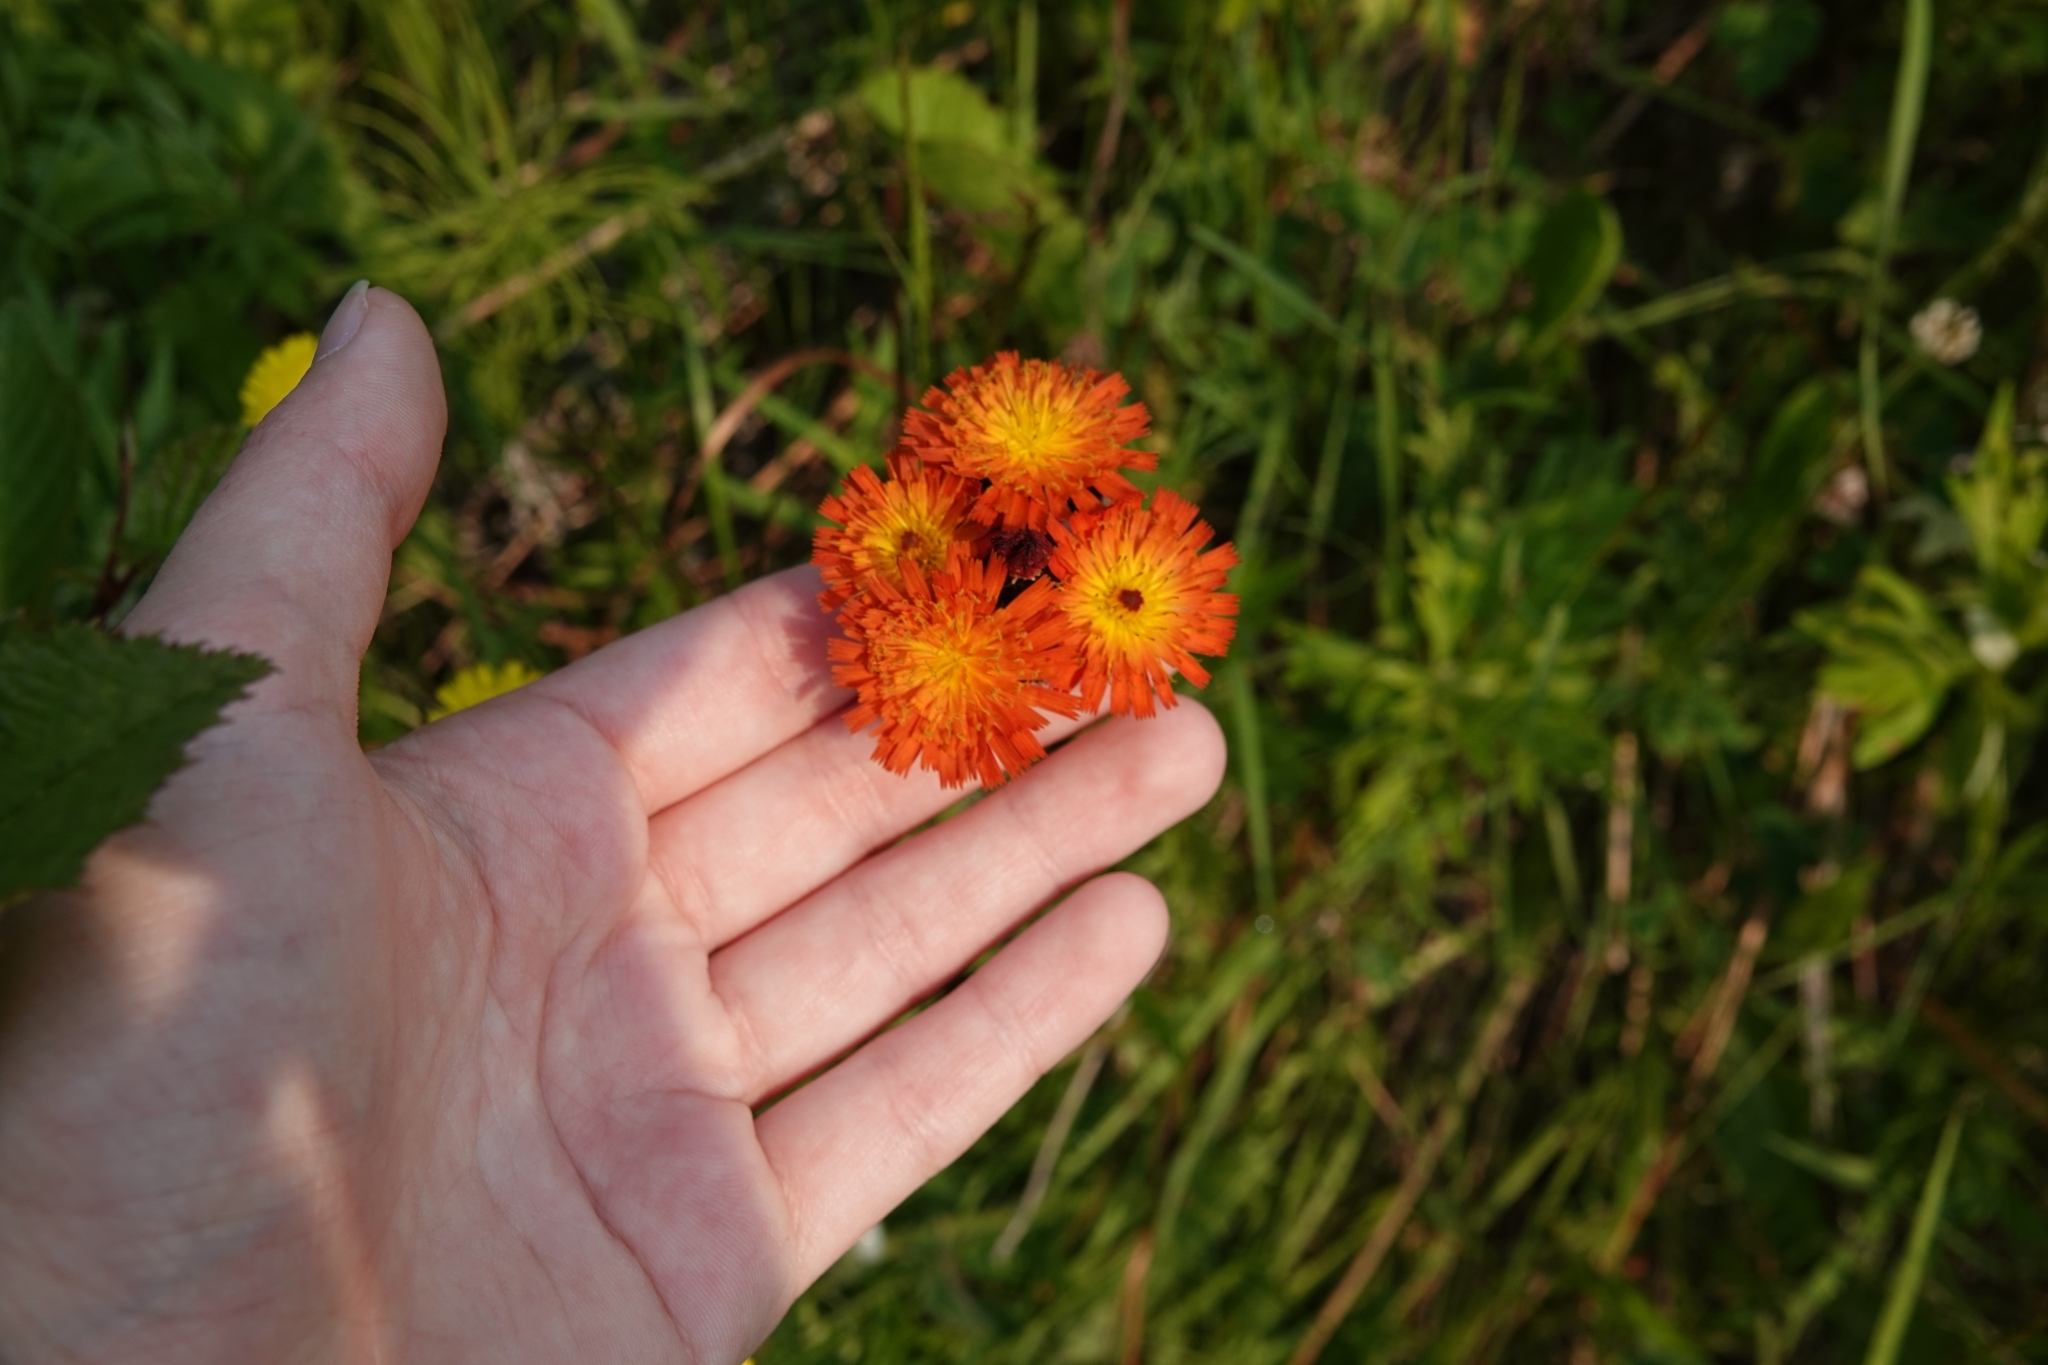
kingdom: Plantae
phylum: Tracheophyta
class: Magnoliopsida
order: Asterales
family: Asteraceae
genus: Pilosella
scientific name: Pilosella aurantiaca
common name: Fox-and-cubs
